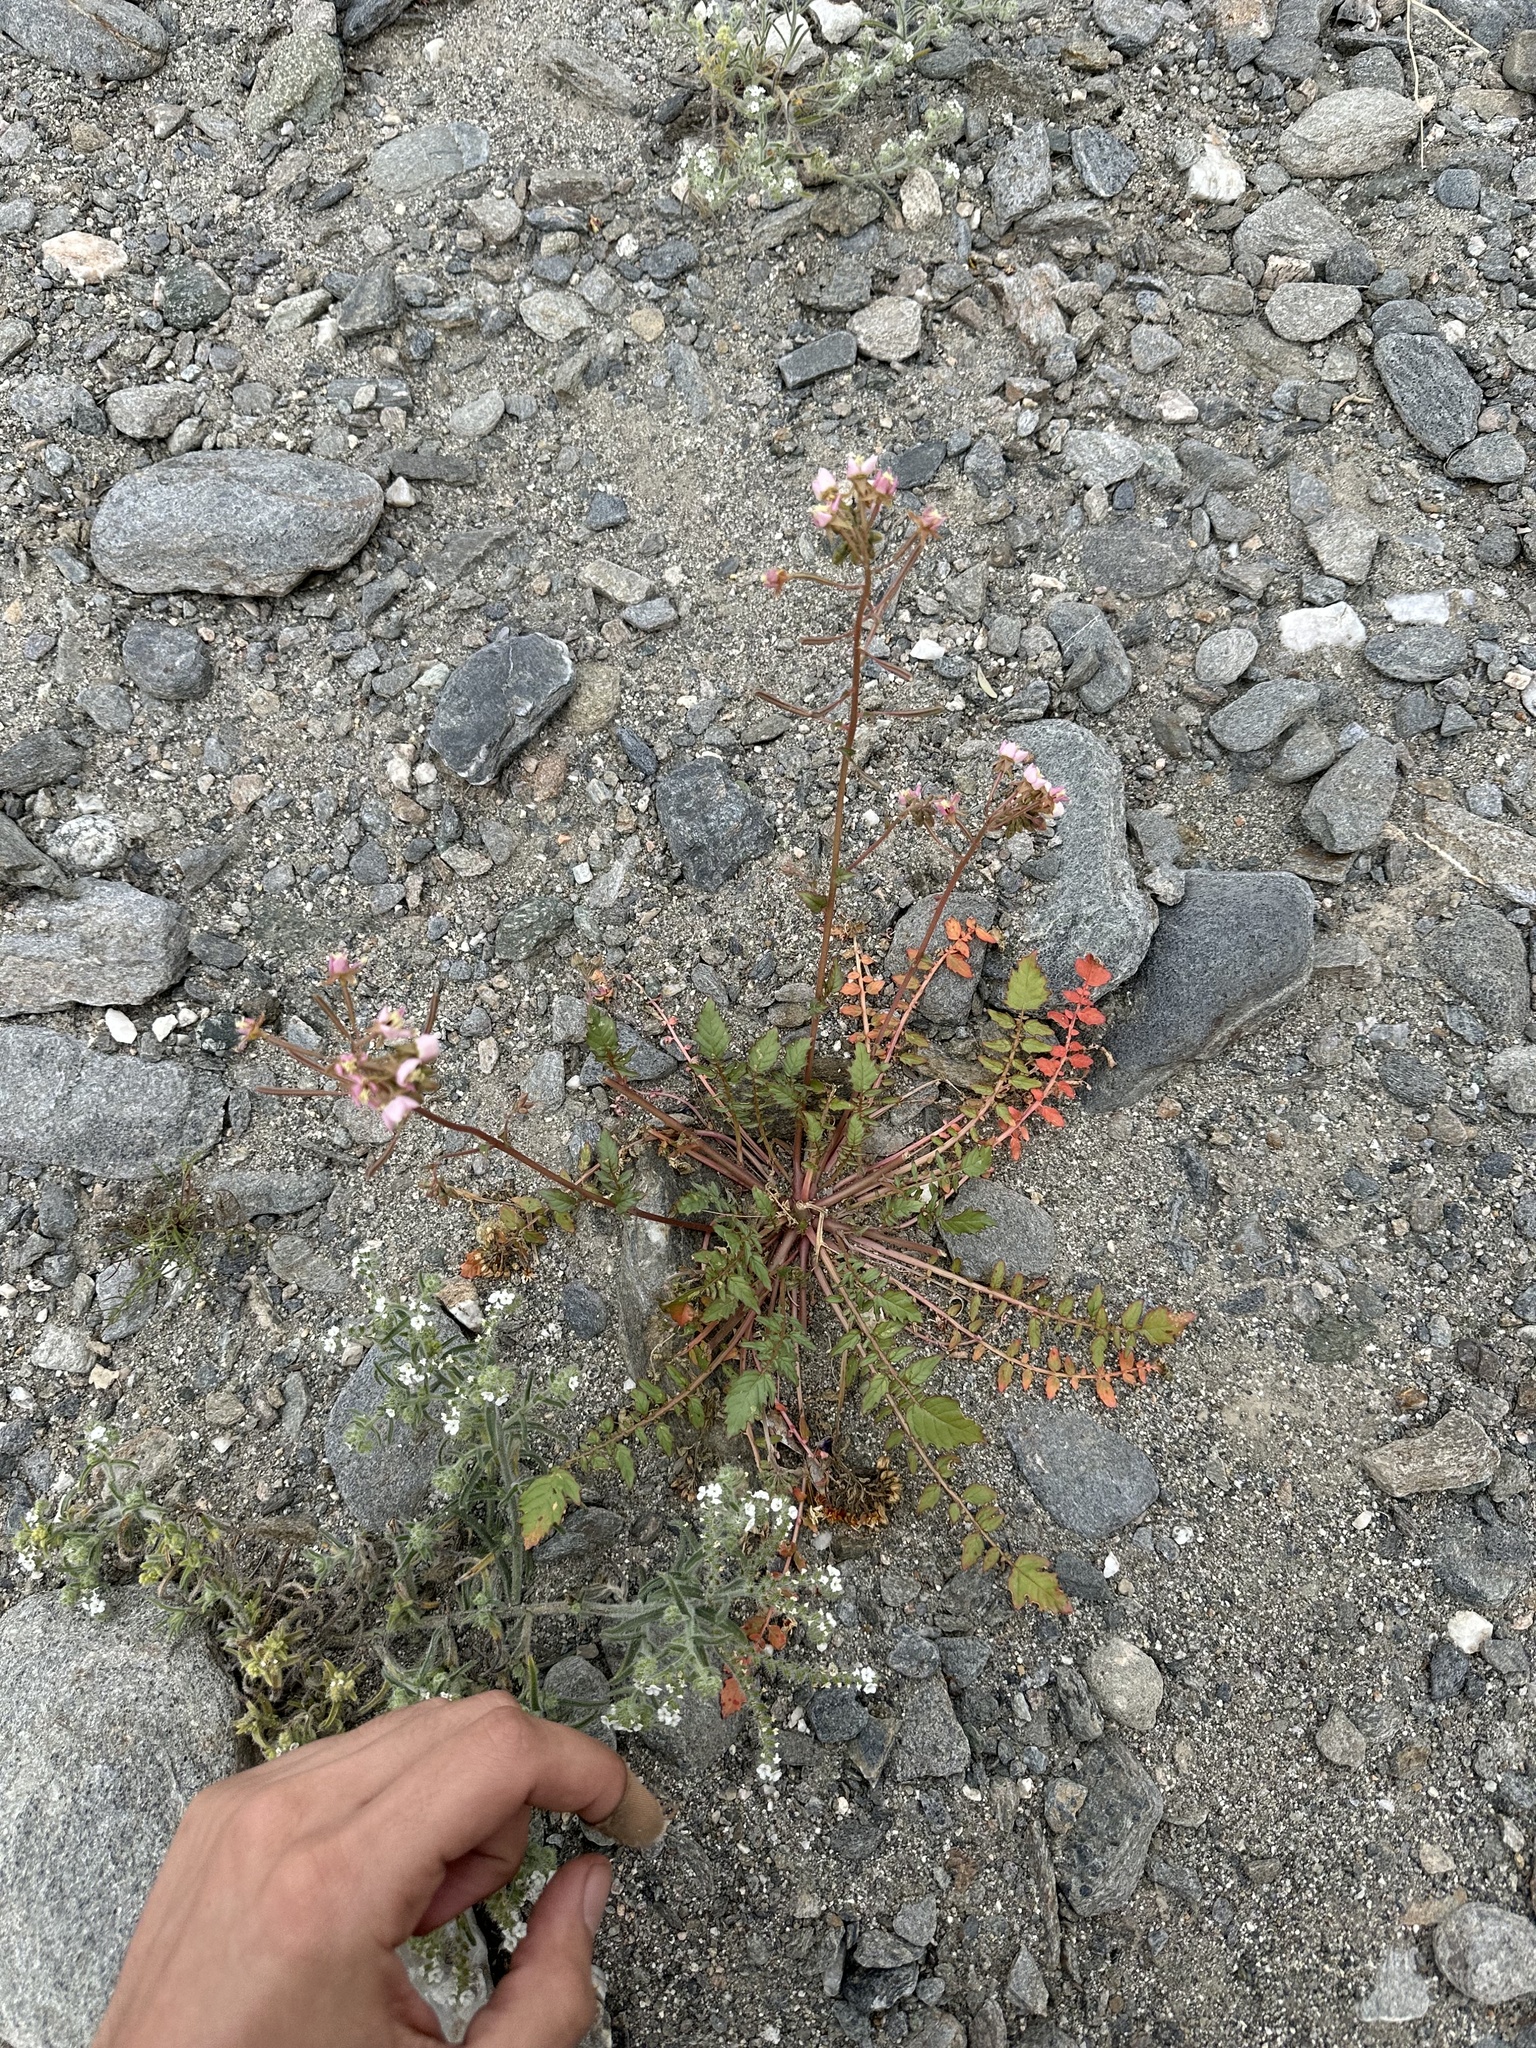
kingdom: Plantae
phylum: Tracheophyta
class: Magnoliopsida
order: Myrtales
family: Onagraceae
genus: Chylismia
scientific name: Chylismia claviformis
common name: Browneyes
